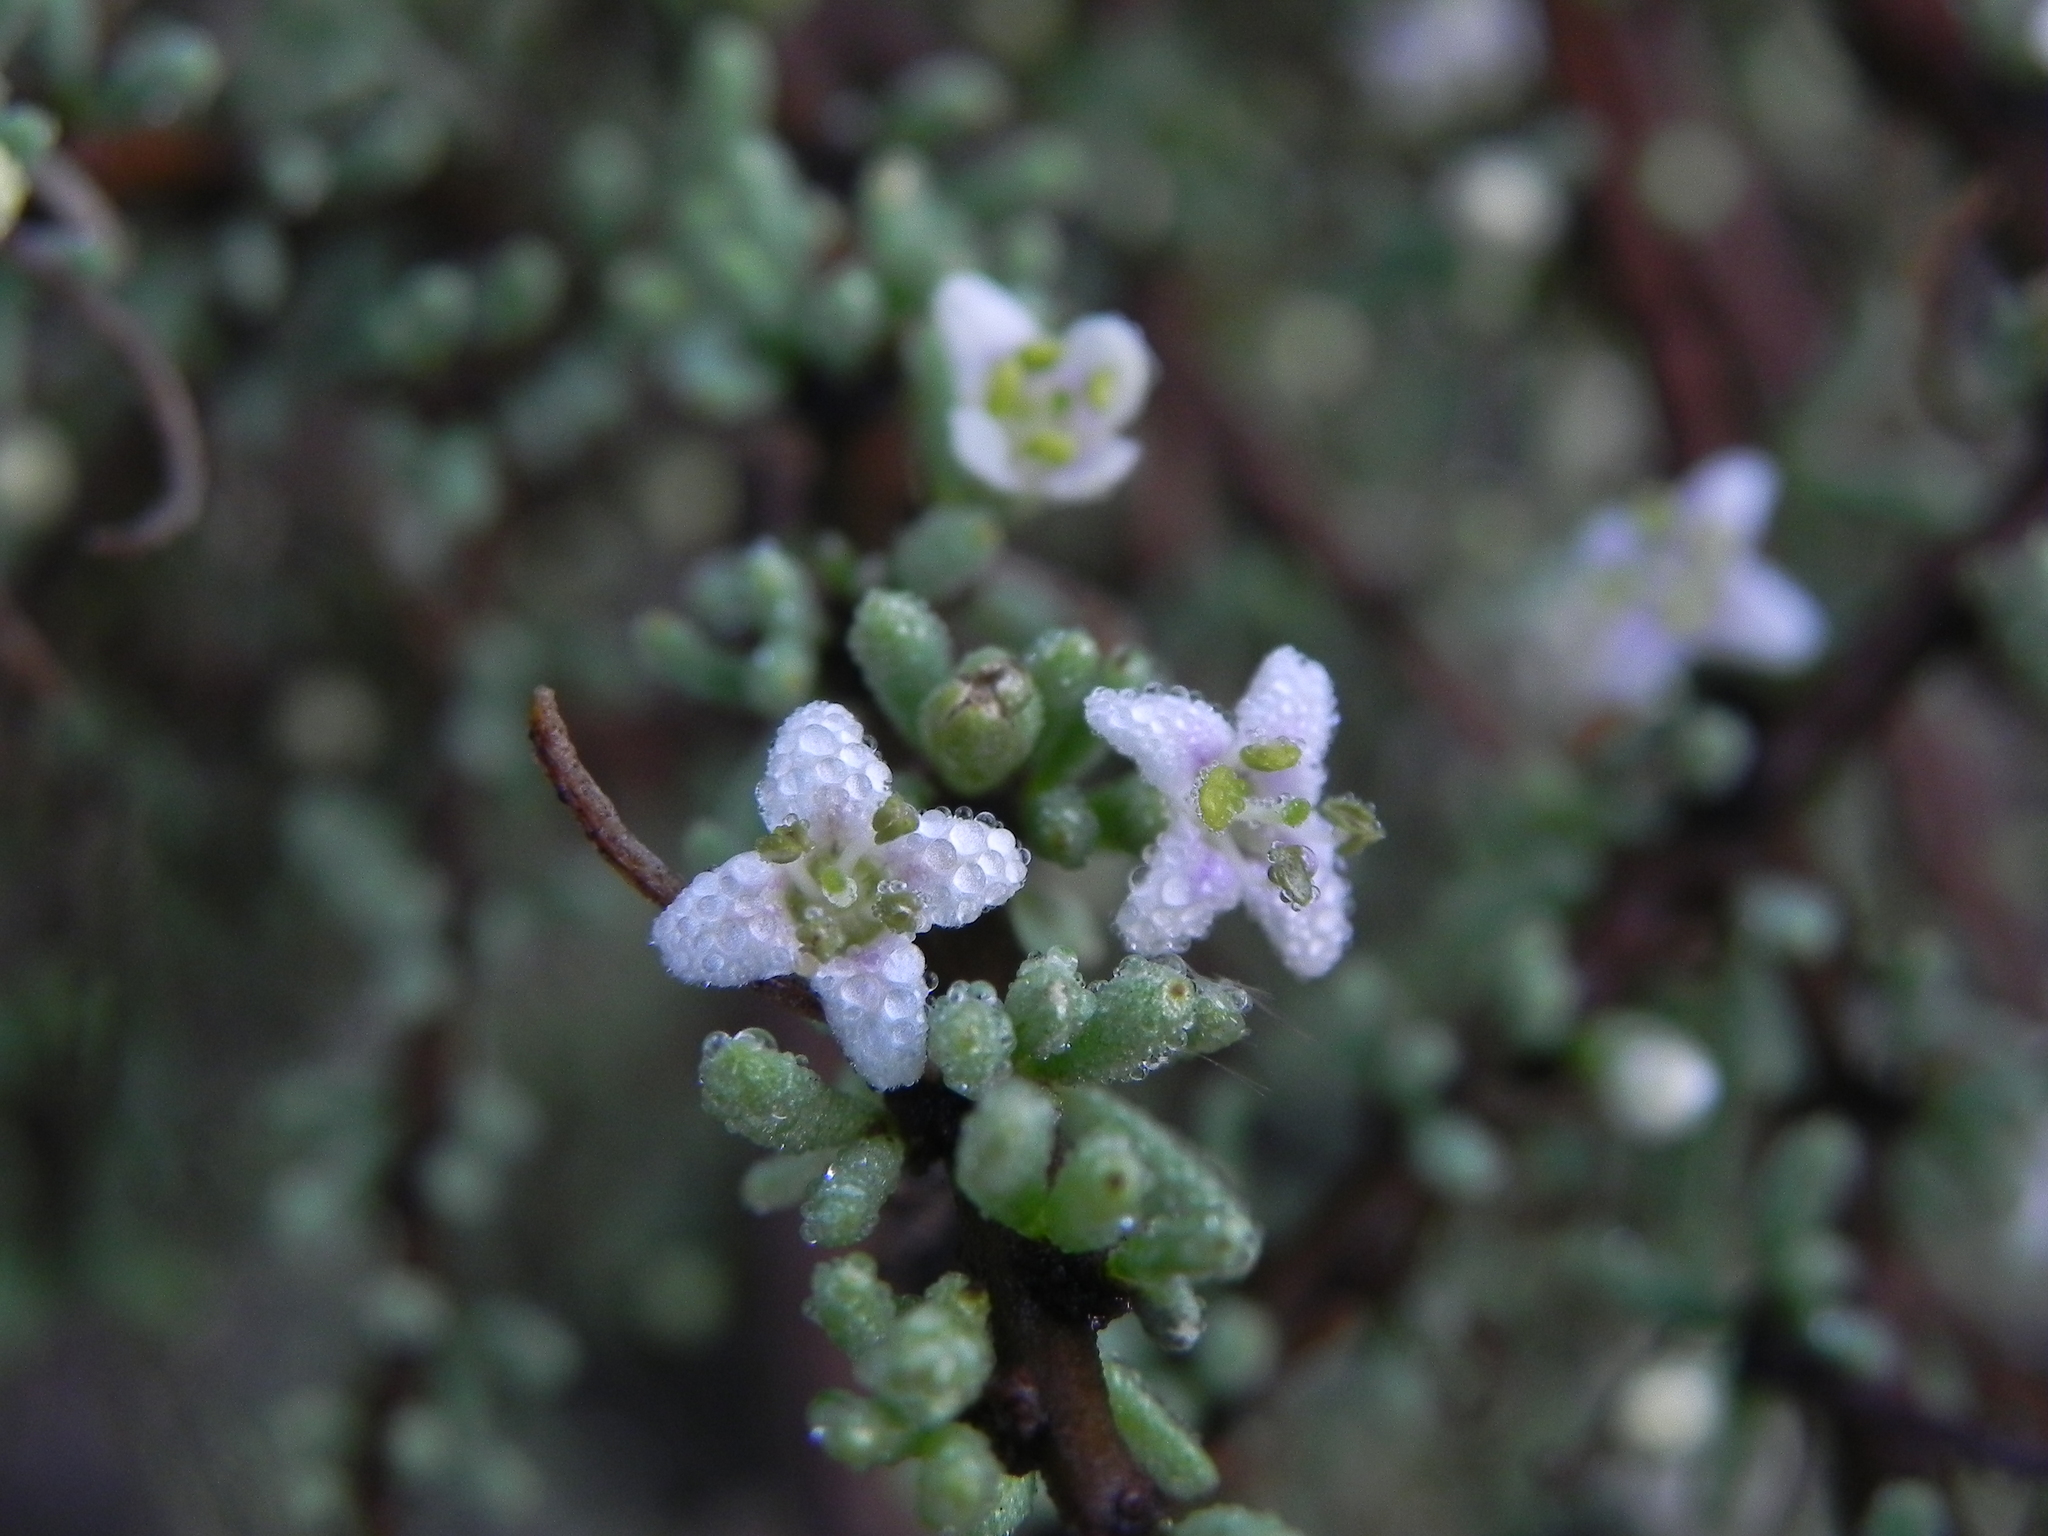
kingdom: Plantae
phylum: Tracheophyta
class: Magnoliopsida
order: Solanales
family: Solanaceae
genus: Lycium
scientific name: Lycium californicum
